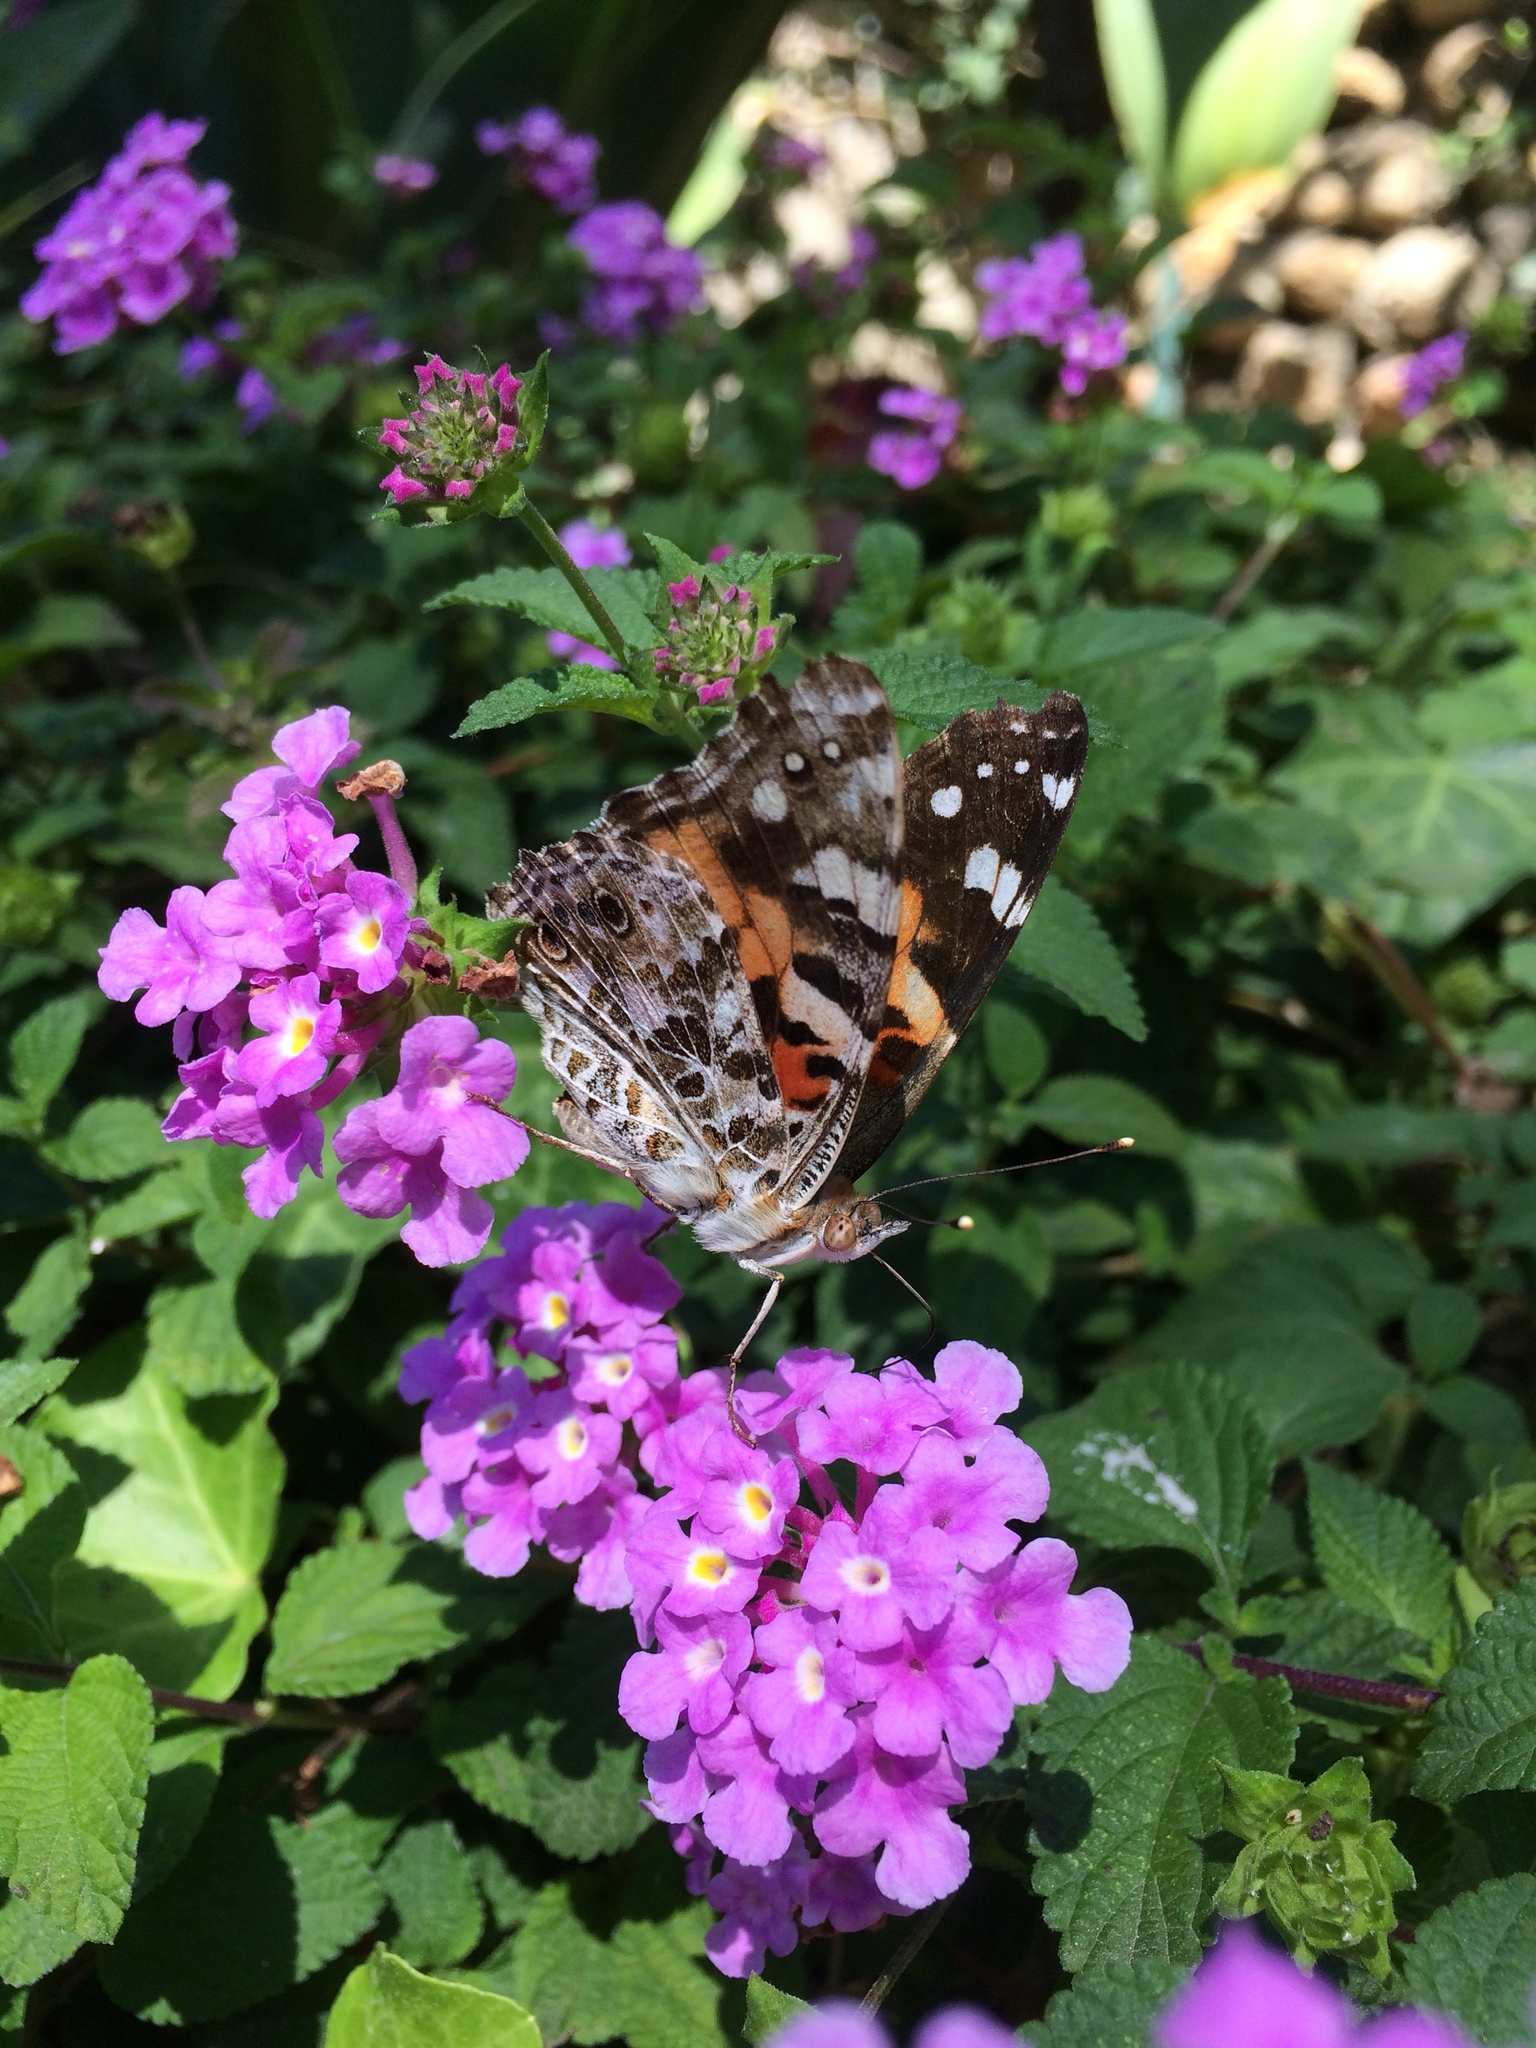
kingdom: Animalia
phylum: Arthropoda
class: Insecta
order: Lepidoptera
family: Nymphalidae
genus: Vanessa
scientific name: Vanessa cardui
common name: Painted lady
